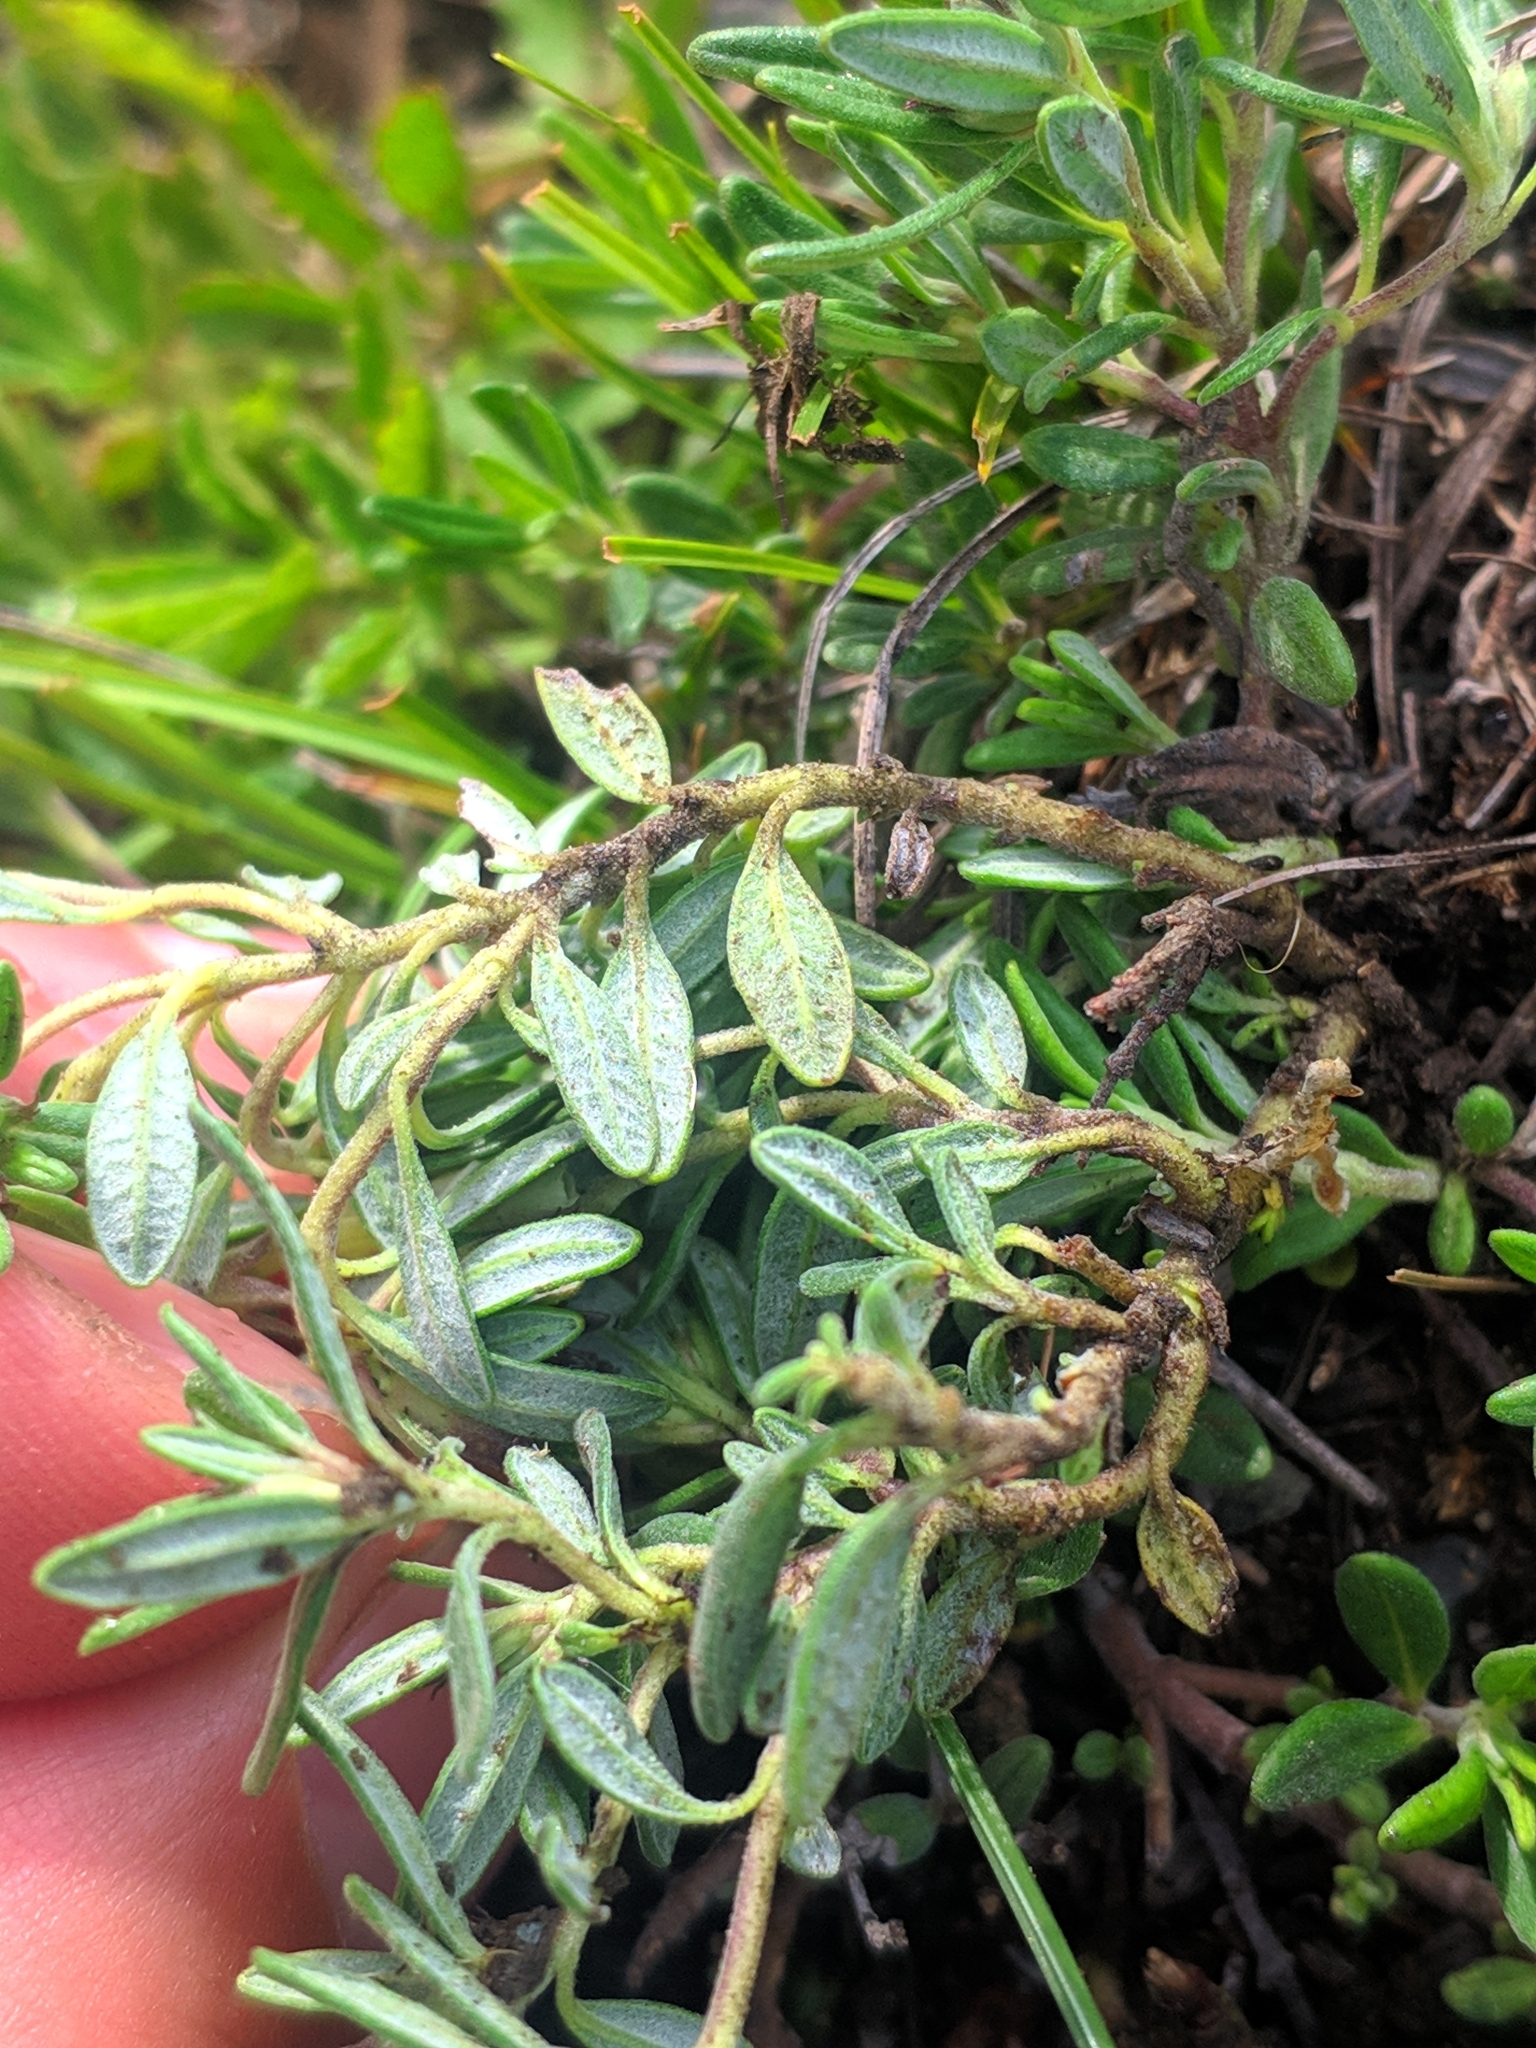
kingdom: Plantae
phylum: Tracheophyta
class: Magnoliopsida
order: Lamiales
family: Lamiaceae
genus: Teucrium
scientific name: Teucrium montanum
